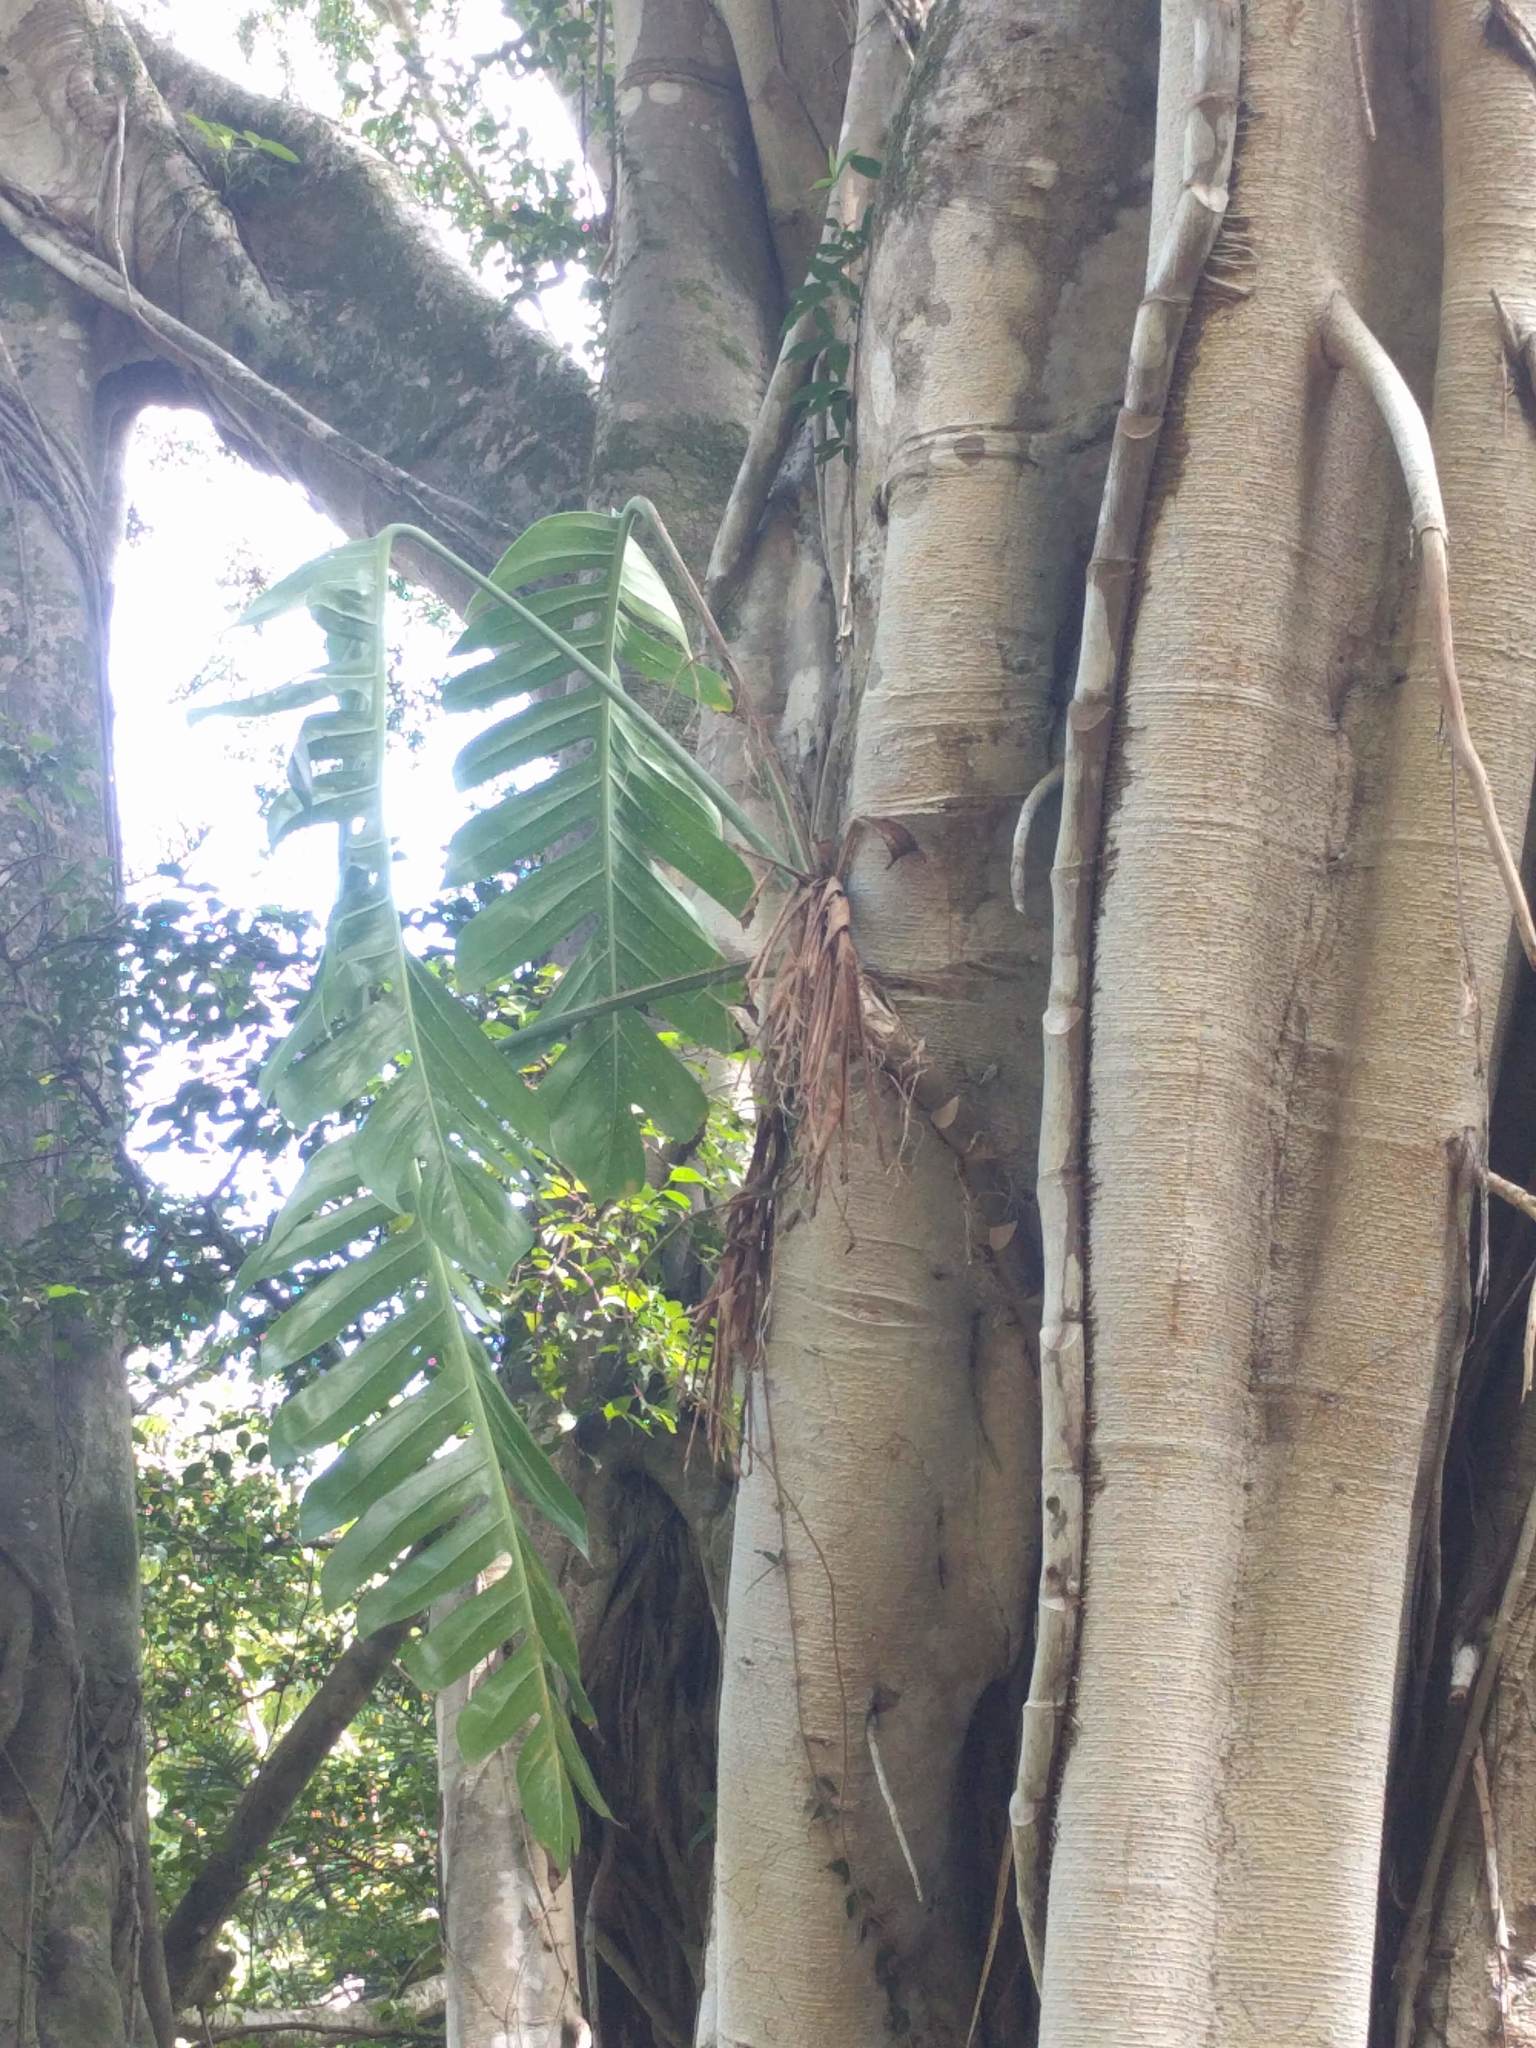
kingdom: Plantae
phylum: Tracheophyta
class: Liliopsida
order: Alismatales
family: Araceae
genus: Epipremnum
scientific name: Epipremnum pinnatum
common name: Centipede tongavine
